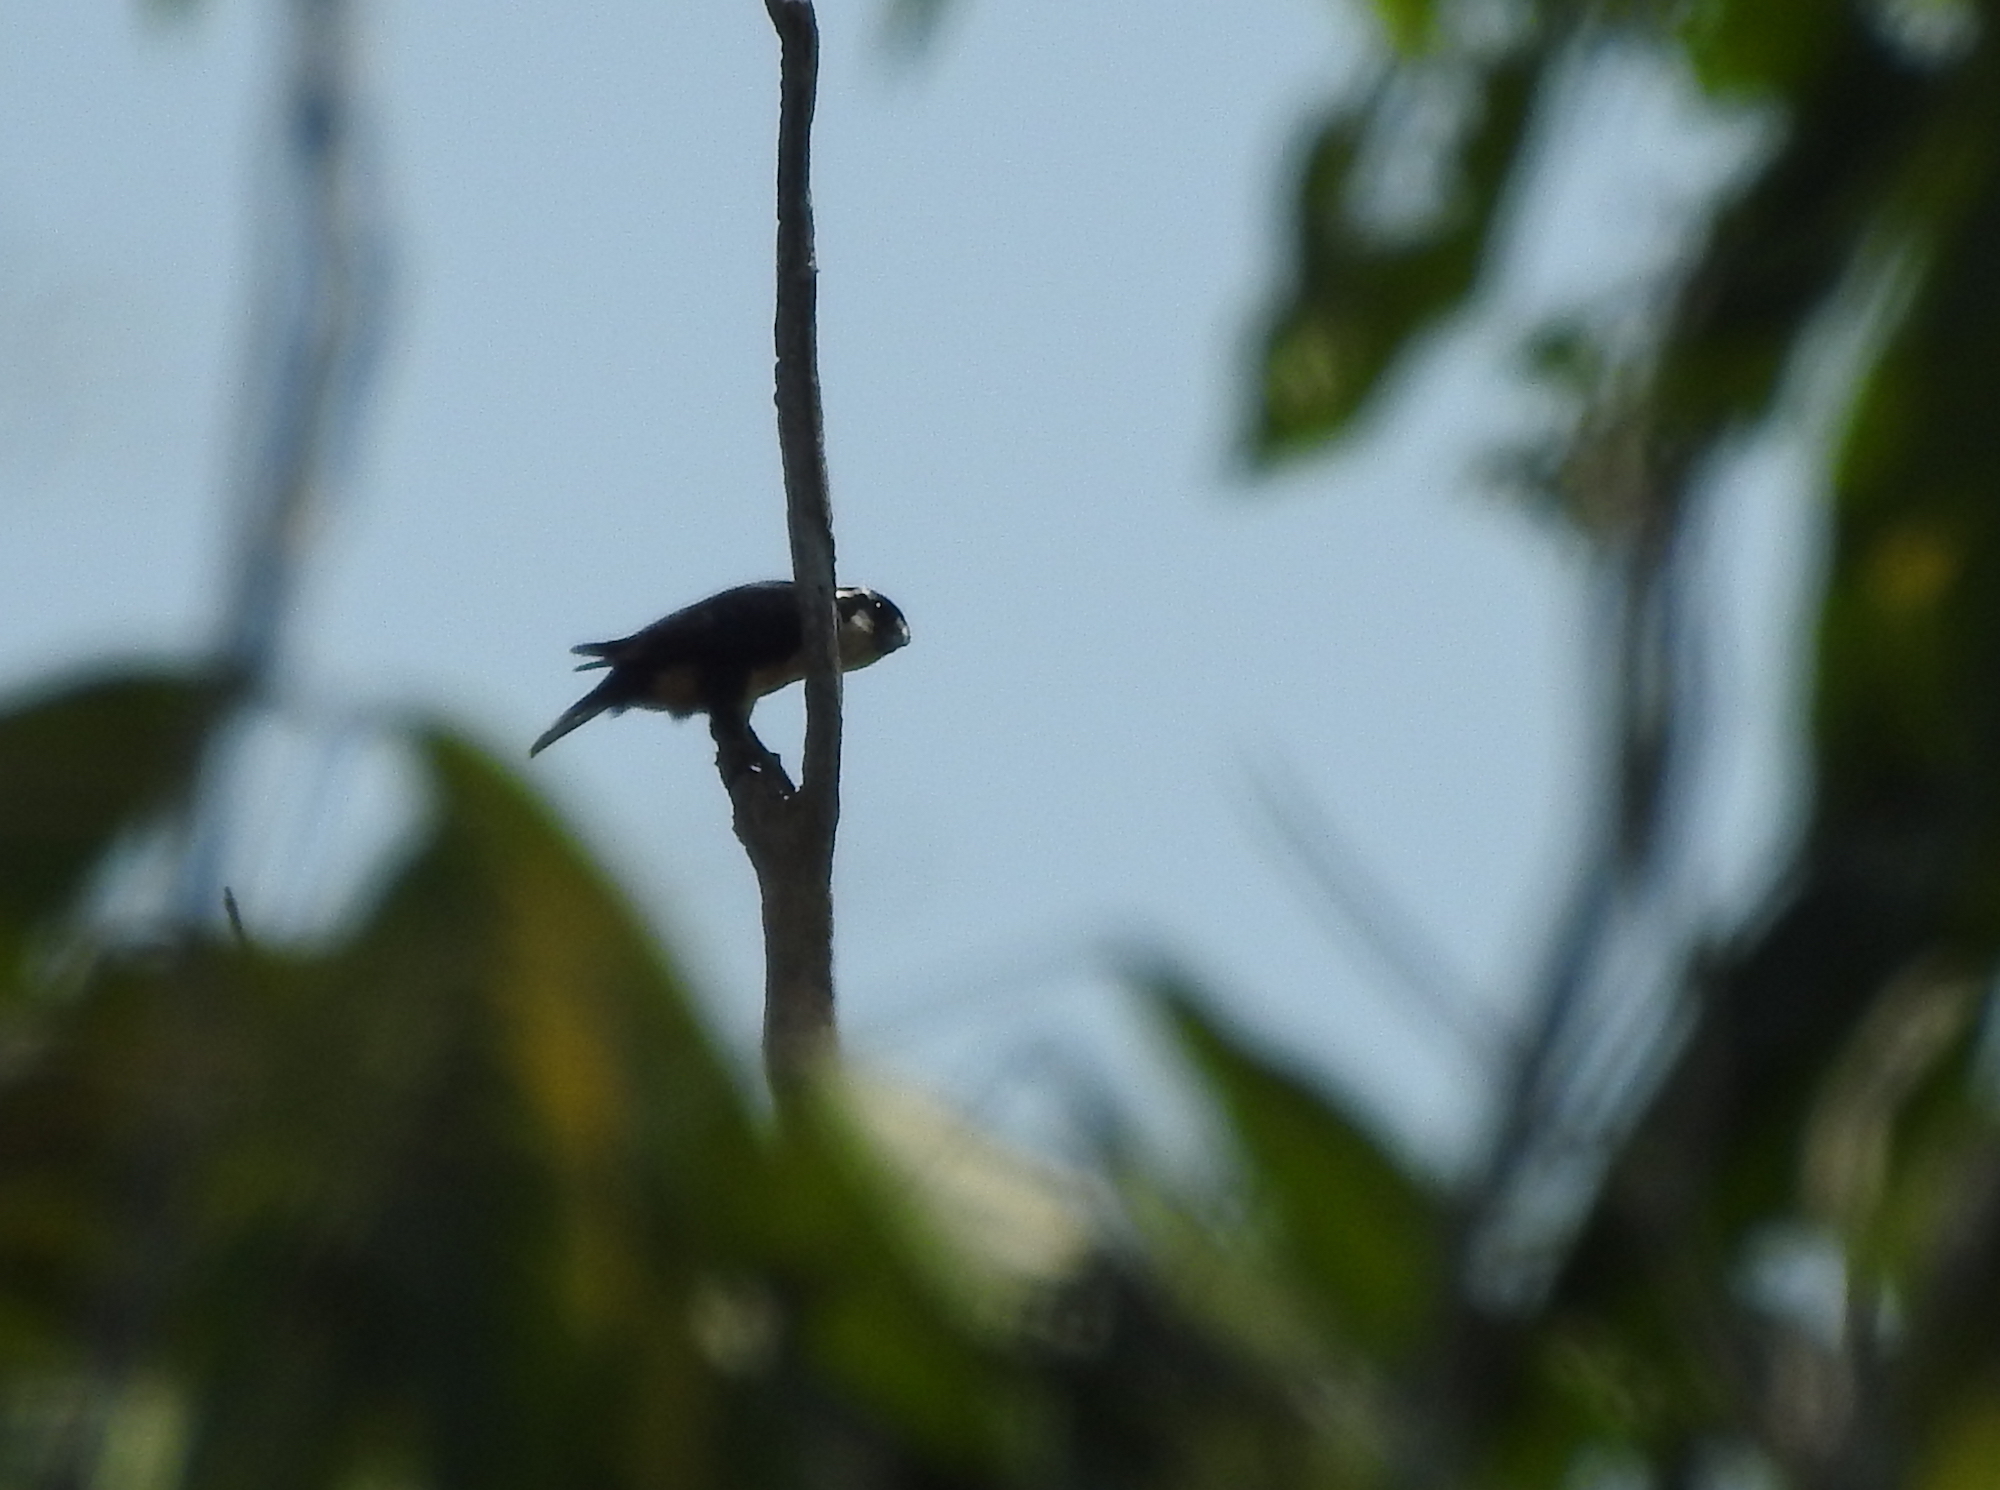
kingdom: Animalia
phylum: Chordata
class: Aves
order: Falconiformes
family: Falconidae
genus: Microhierax
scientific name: Microhierax fringillarius
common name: Black-thighed falconet
